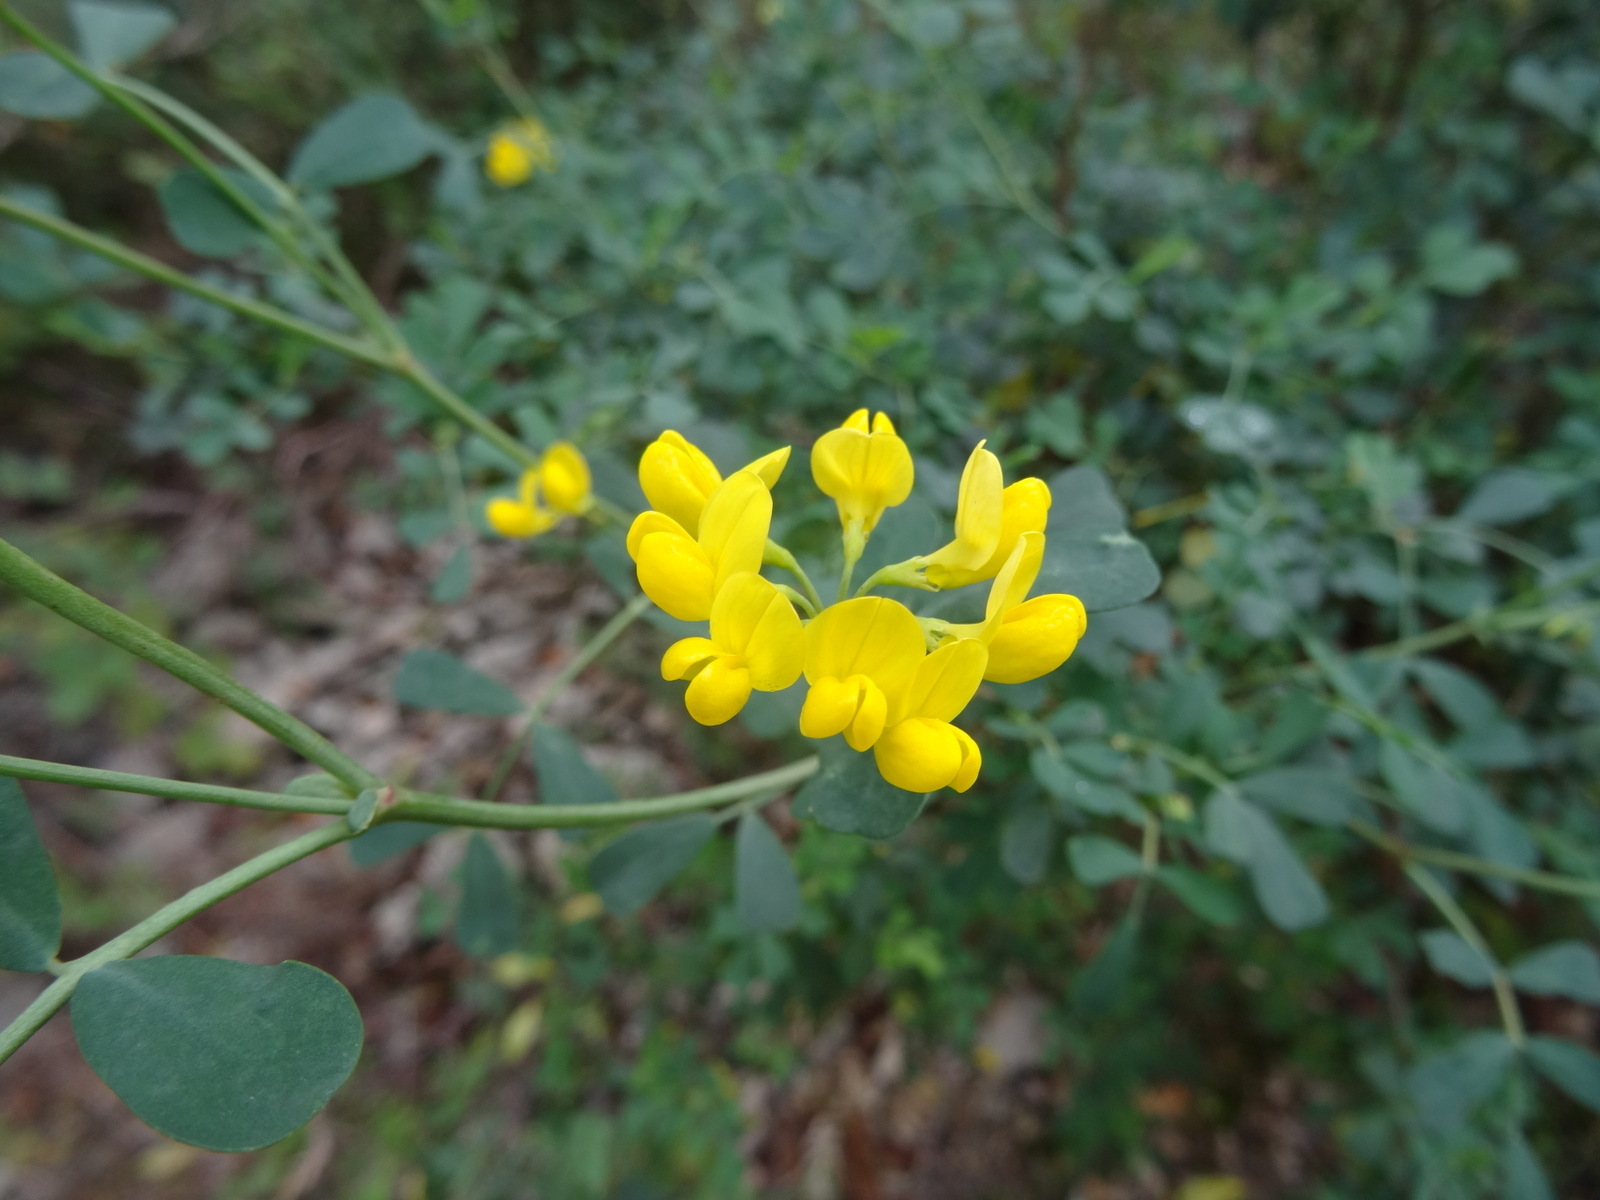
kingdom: Plantae
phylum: Tracheophyta
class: Magnoliopsida
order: Fabales
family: Fabaceae
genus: Coronilla
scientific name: Coronilla valentina
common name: Shrubby scorpion-vetch
